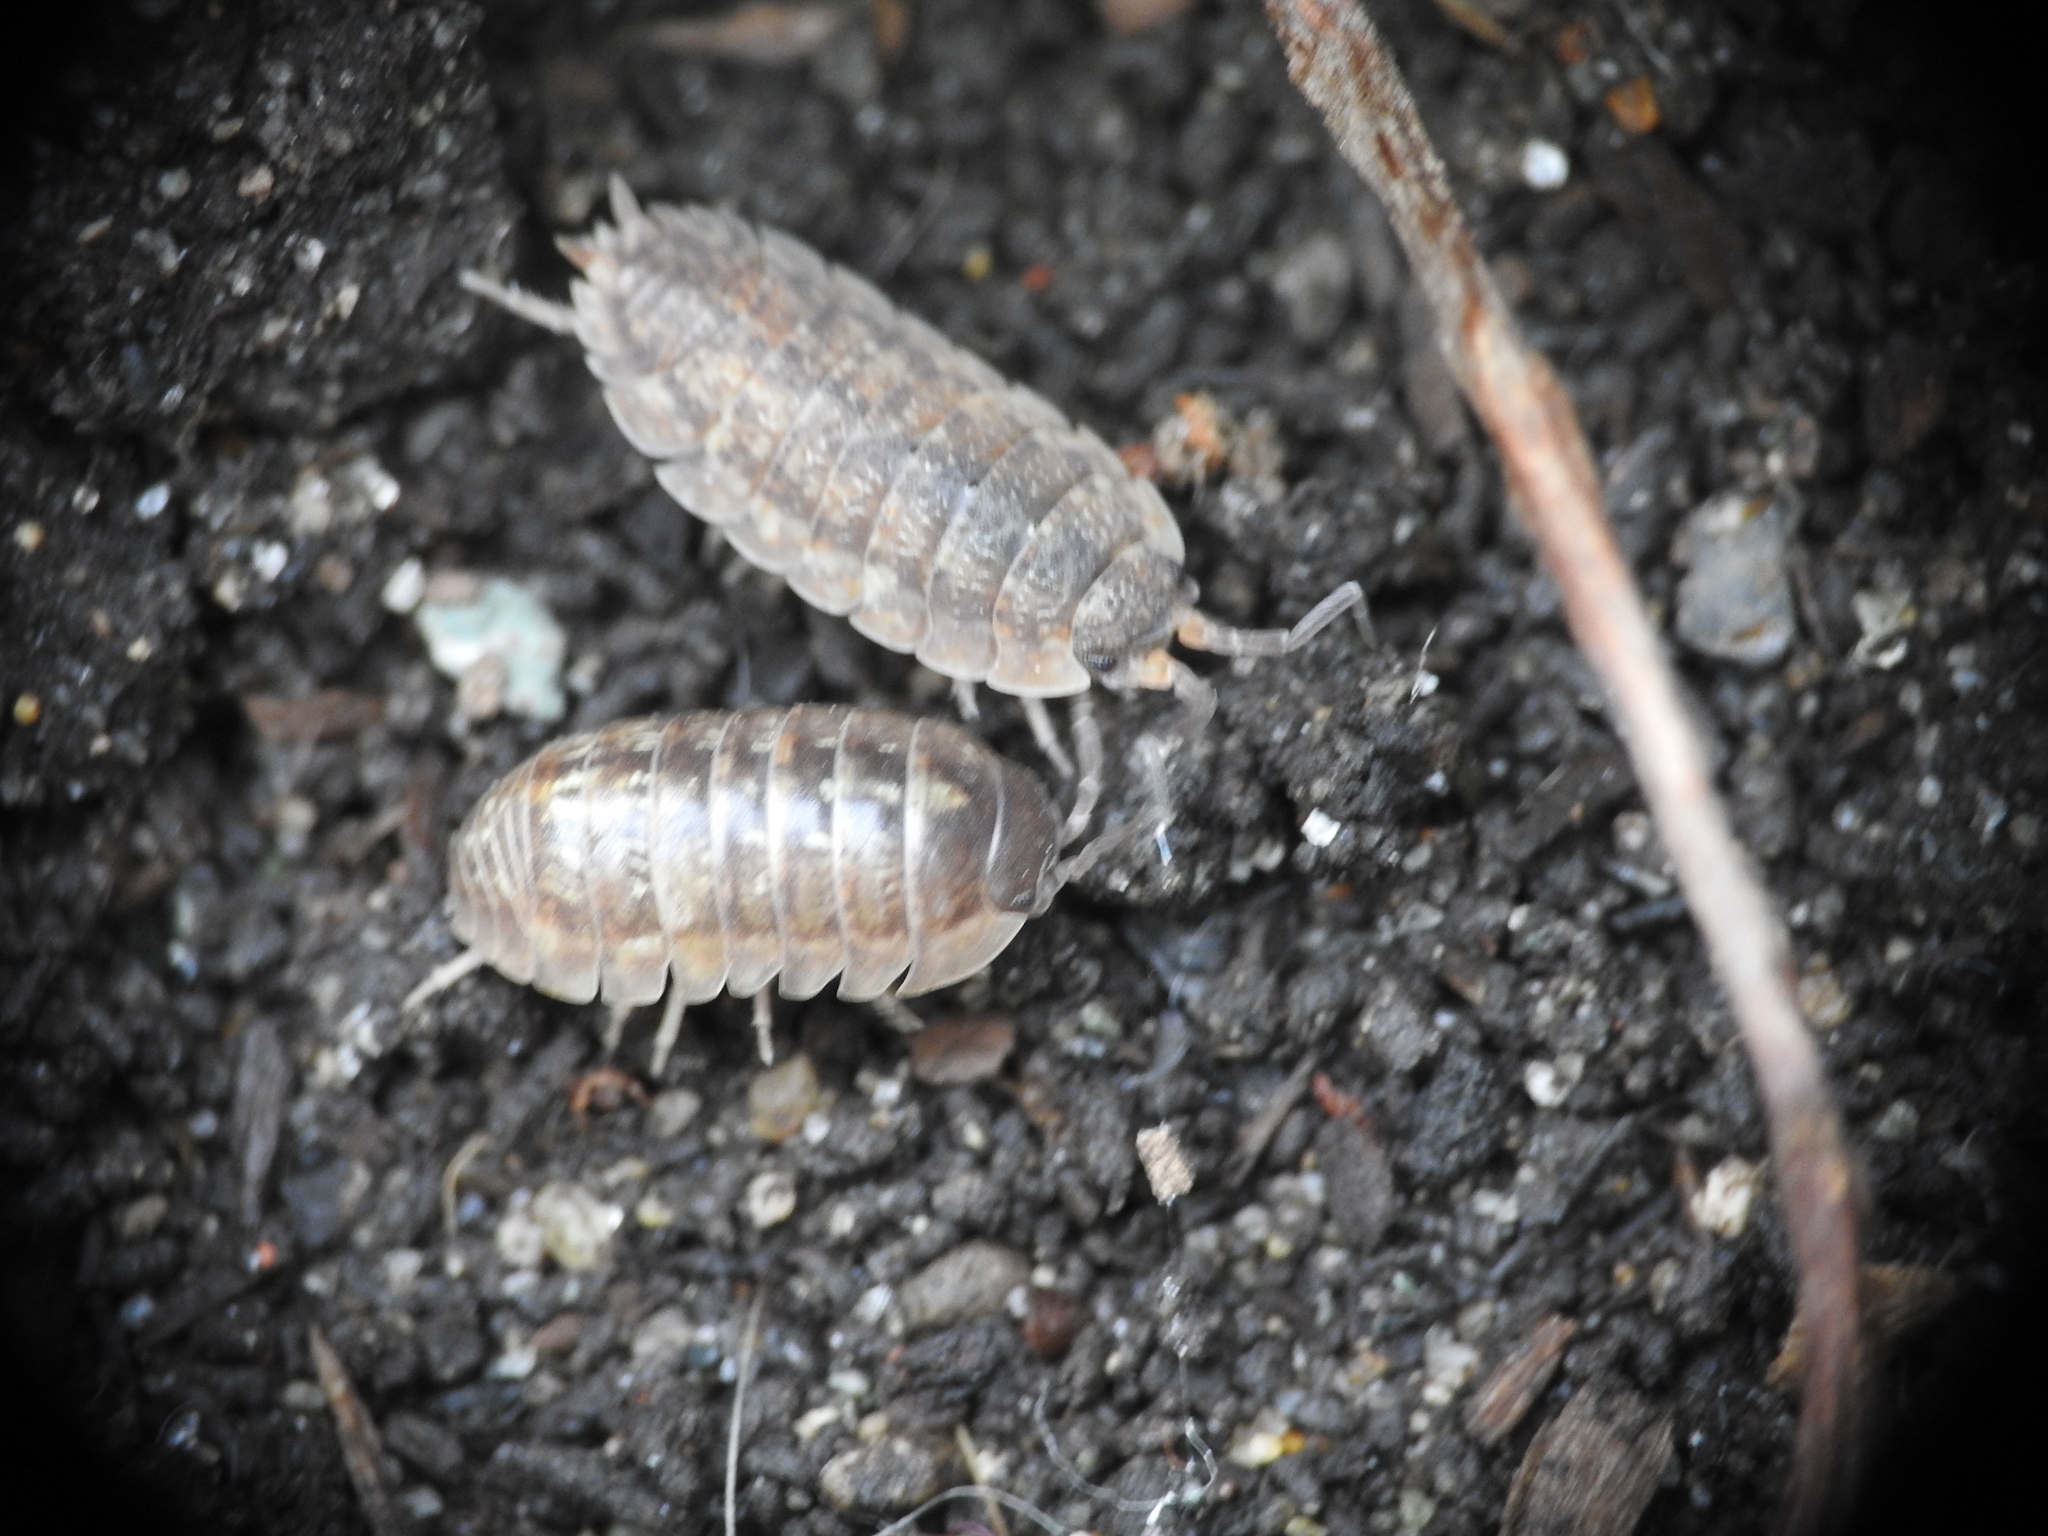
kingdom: Animalia
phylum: Arthropoda
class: Malacostraca
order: Isopoda
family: Armadillidiidae
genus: Armadillidium
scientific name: Armadillidium vulgare
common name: Common pill woodlouse
